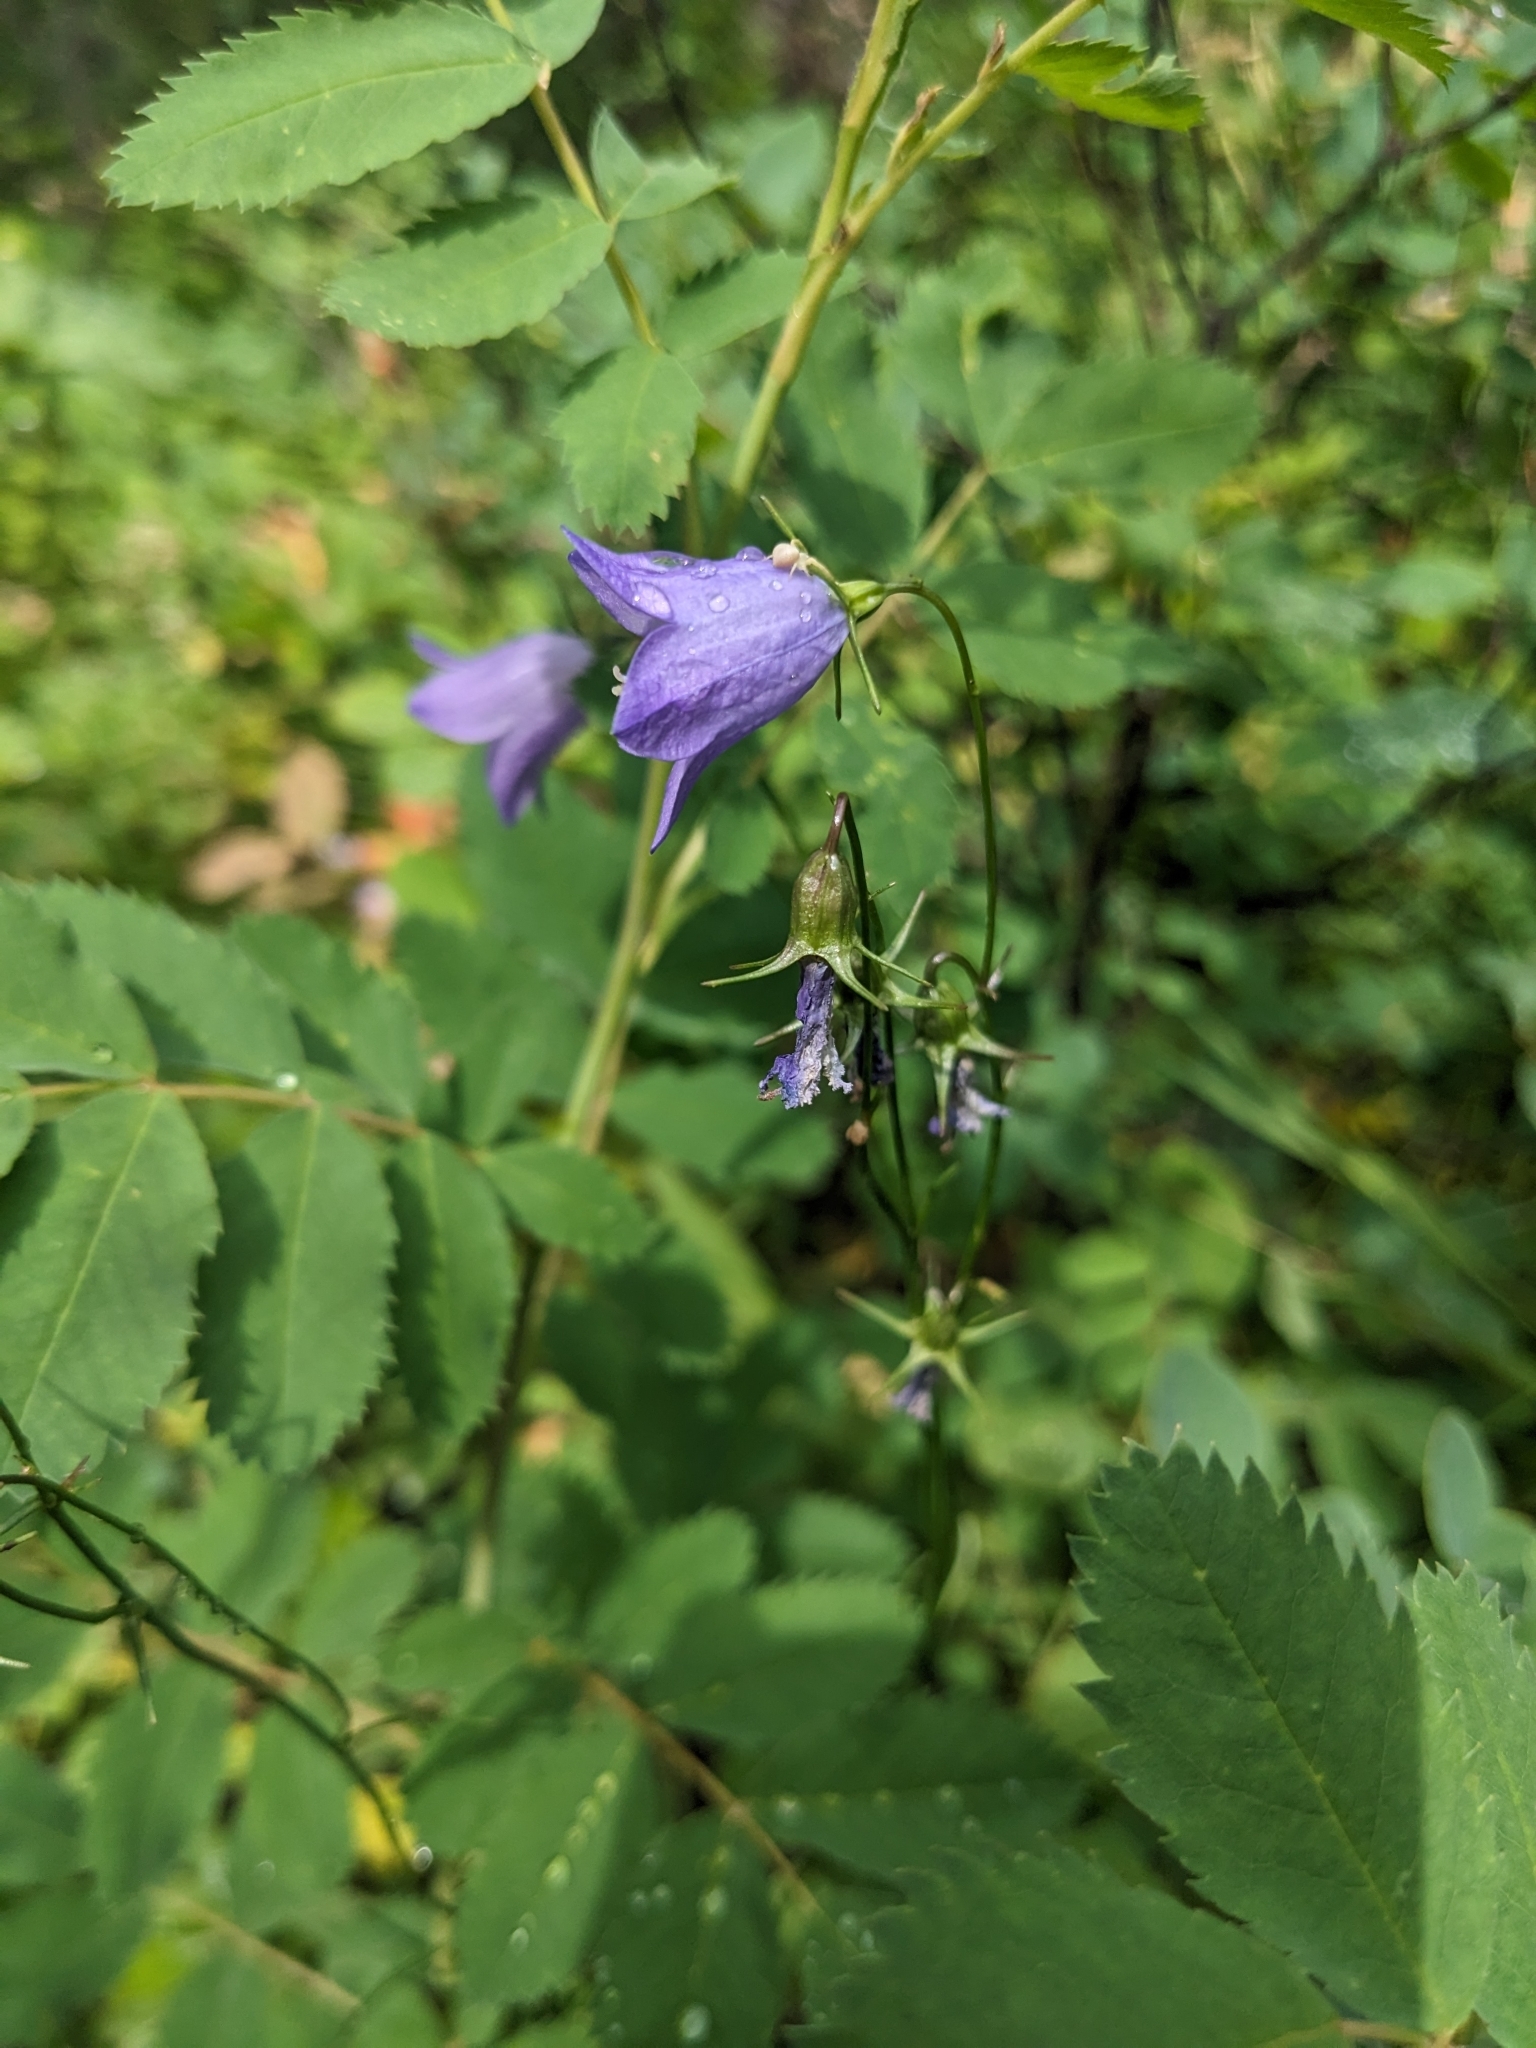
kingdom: Plantae
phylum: Tracheophyta
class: Magnoliopsida
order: Asterales
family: Campanulaceae
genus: Campanula
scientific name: Campanula
